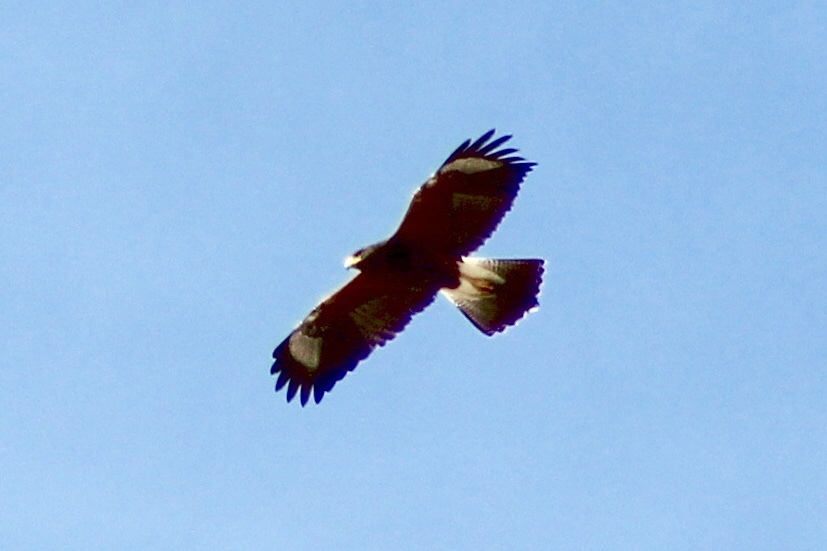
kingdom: Animalia
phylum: Chordata
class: Aves
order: Accipitriformes
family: Accipitridae
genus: Parabuteo
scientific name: Parabuteo unicinctus
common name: Harris's hawk
